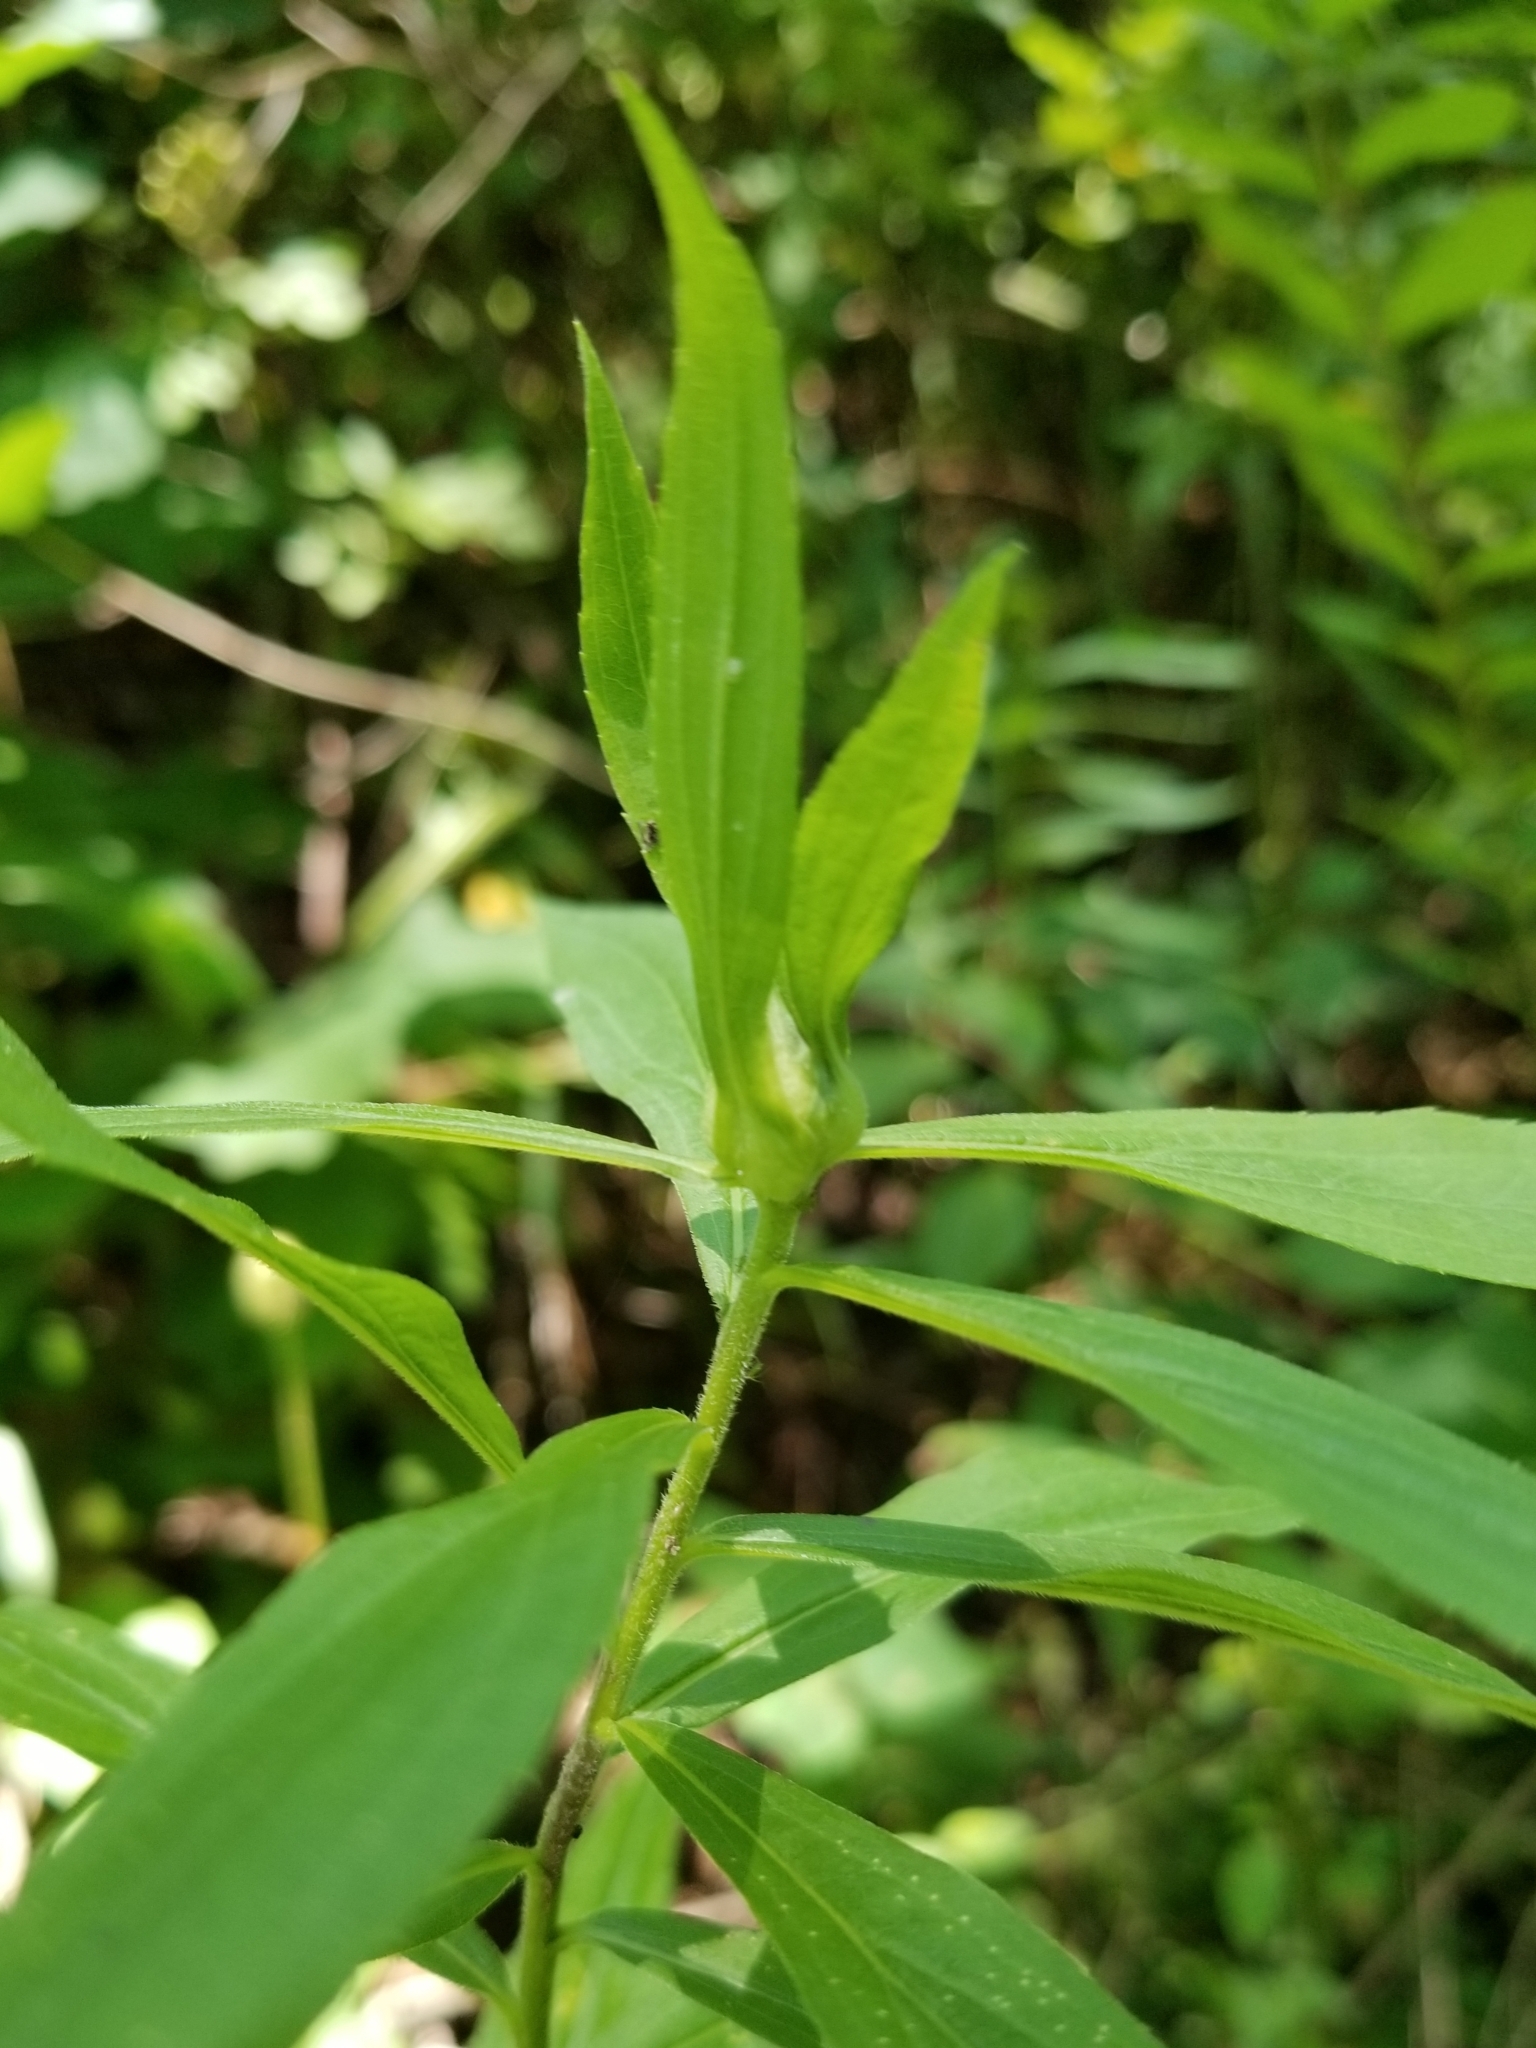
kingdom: Animalia
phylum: Arthropoda
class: Insecta
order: Diptera
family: Cecidomyiidae
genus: Dasineura
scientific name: Dasineura folliculi
